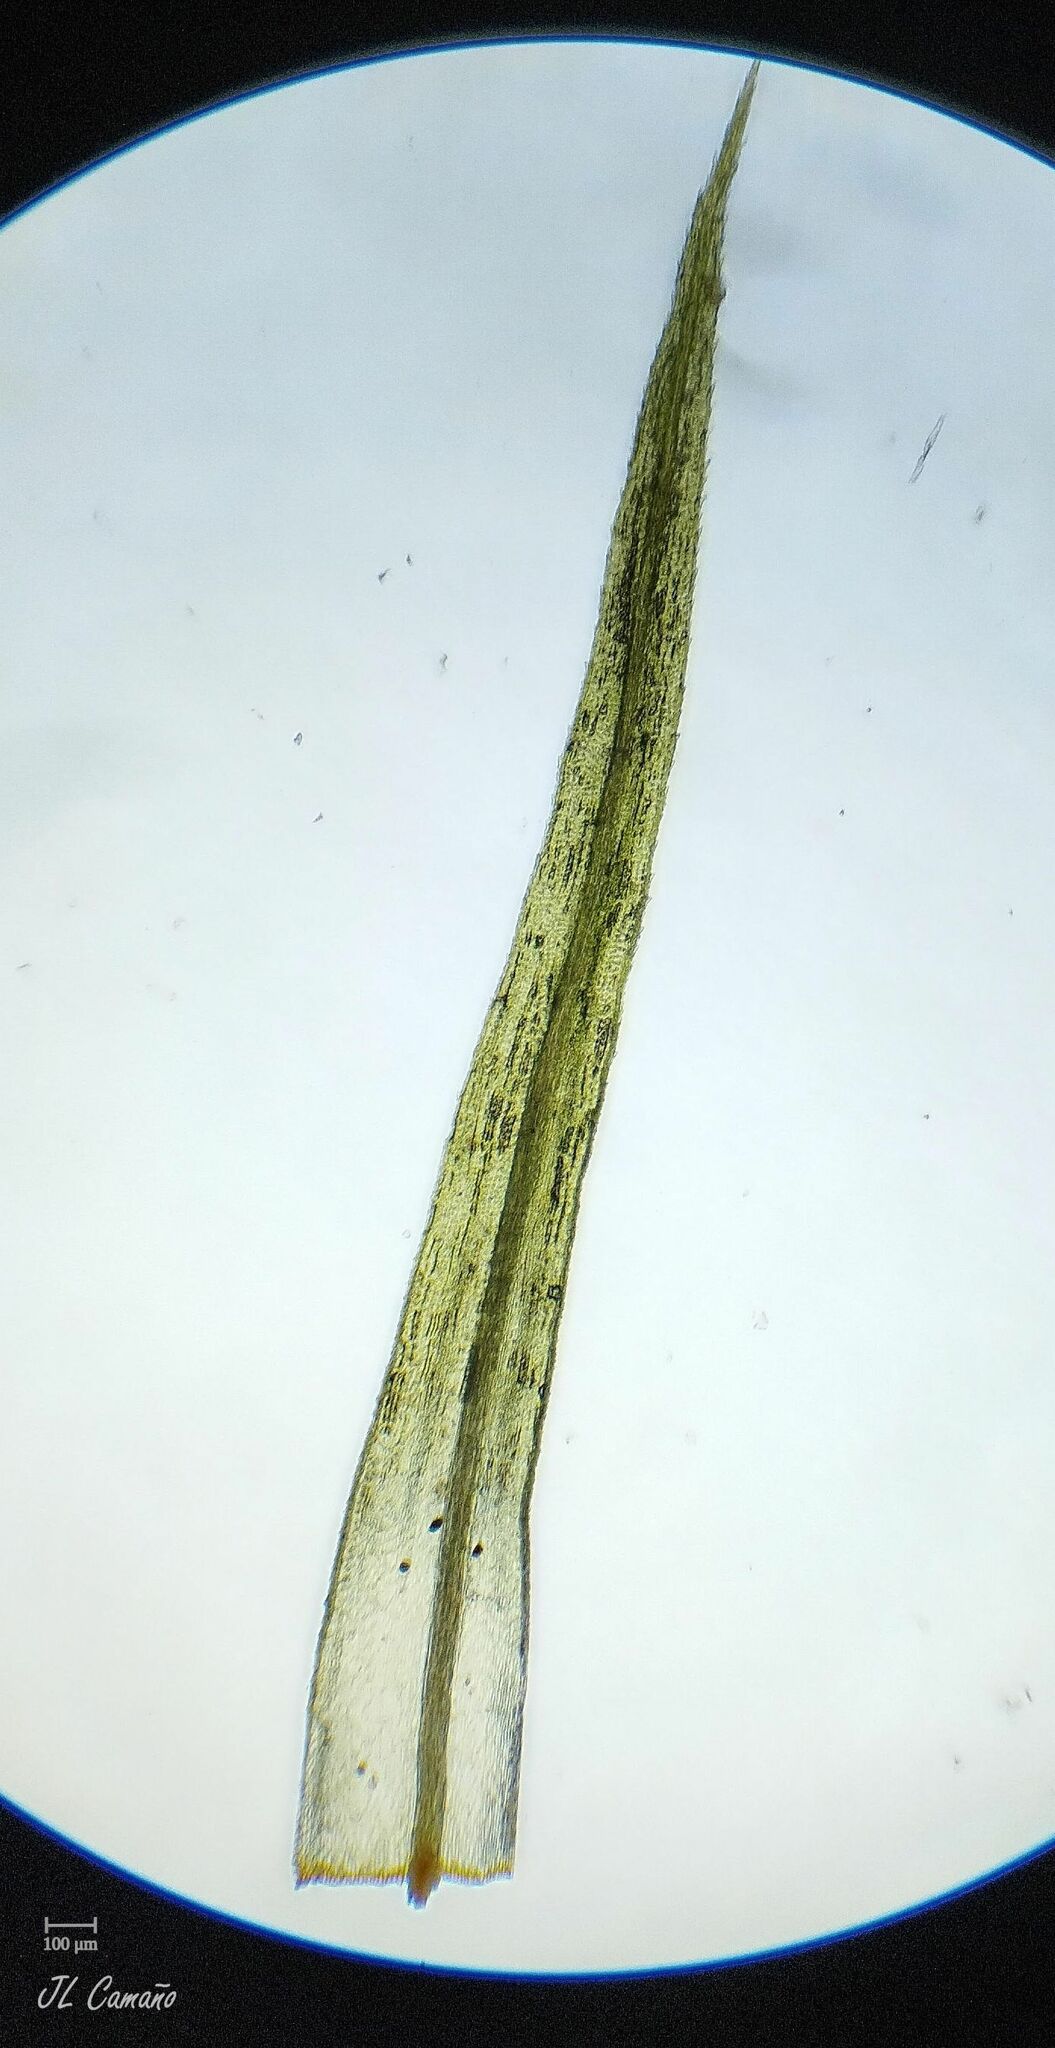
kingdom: Plantae
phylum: Bryophyta
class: Bryopsida
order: Bartramiales
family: Bartramiaceae
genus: Bartramia
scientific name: Bartramia ithyphylla
